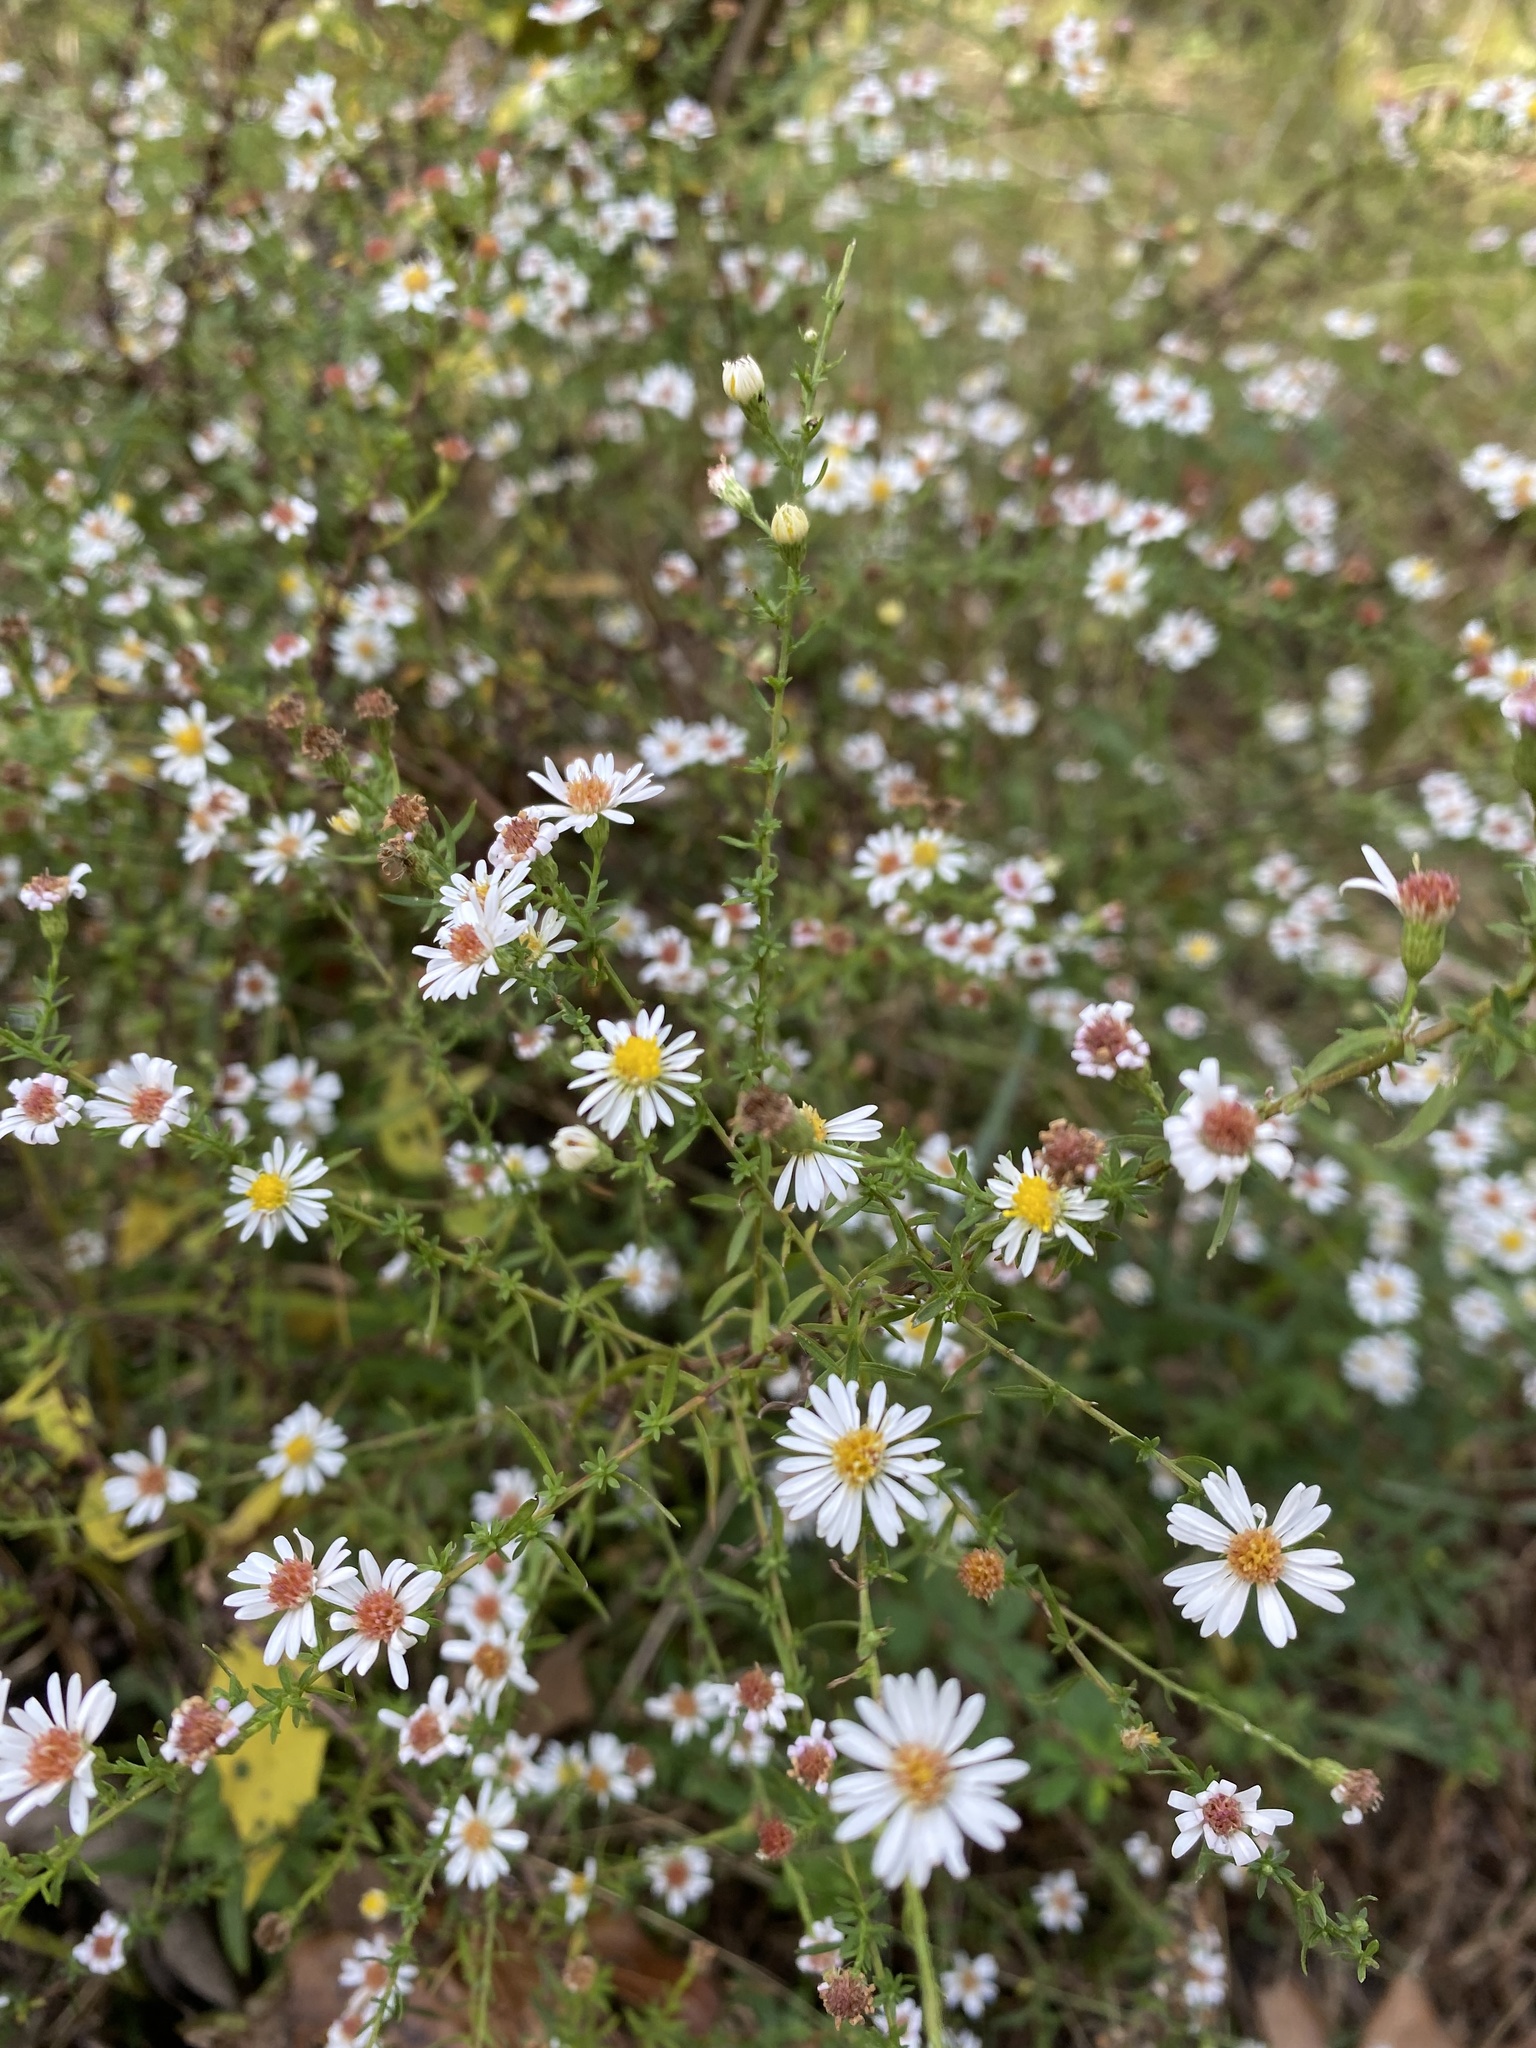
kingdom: Plantae
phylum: Tracheophyta
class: Magnoliopsida
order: Asterales
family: Asteraceae
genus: Symphyotrichum
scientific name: Symphyotrichum pilosum
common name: Awl aster
